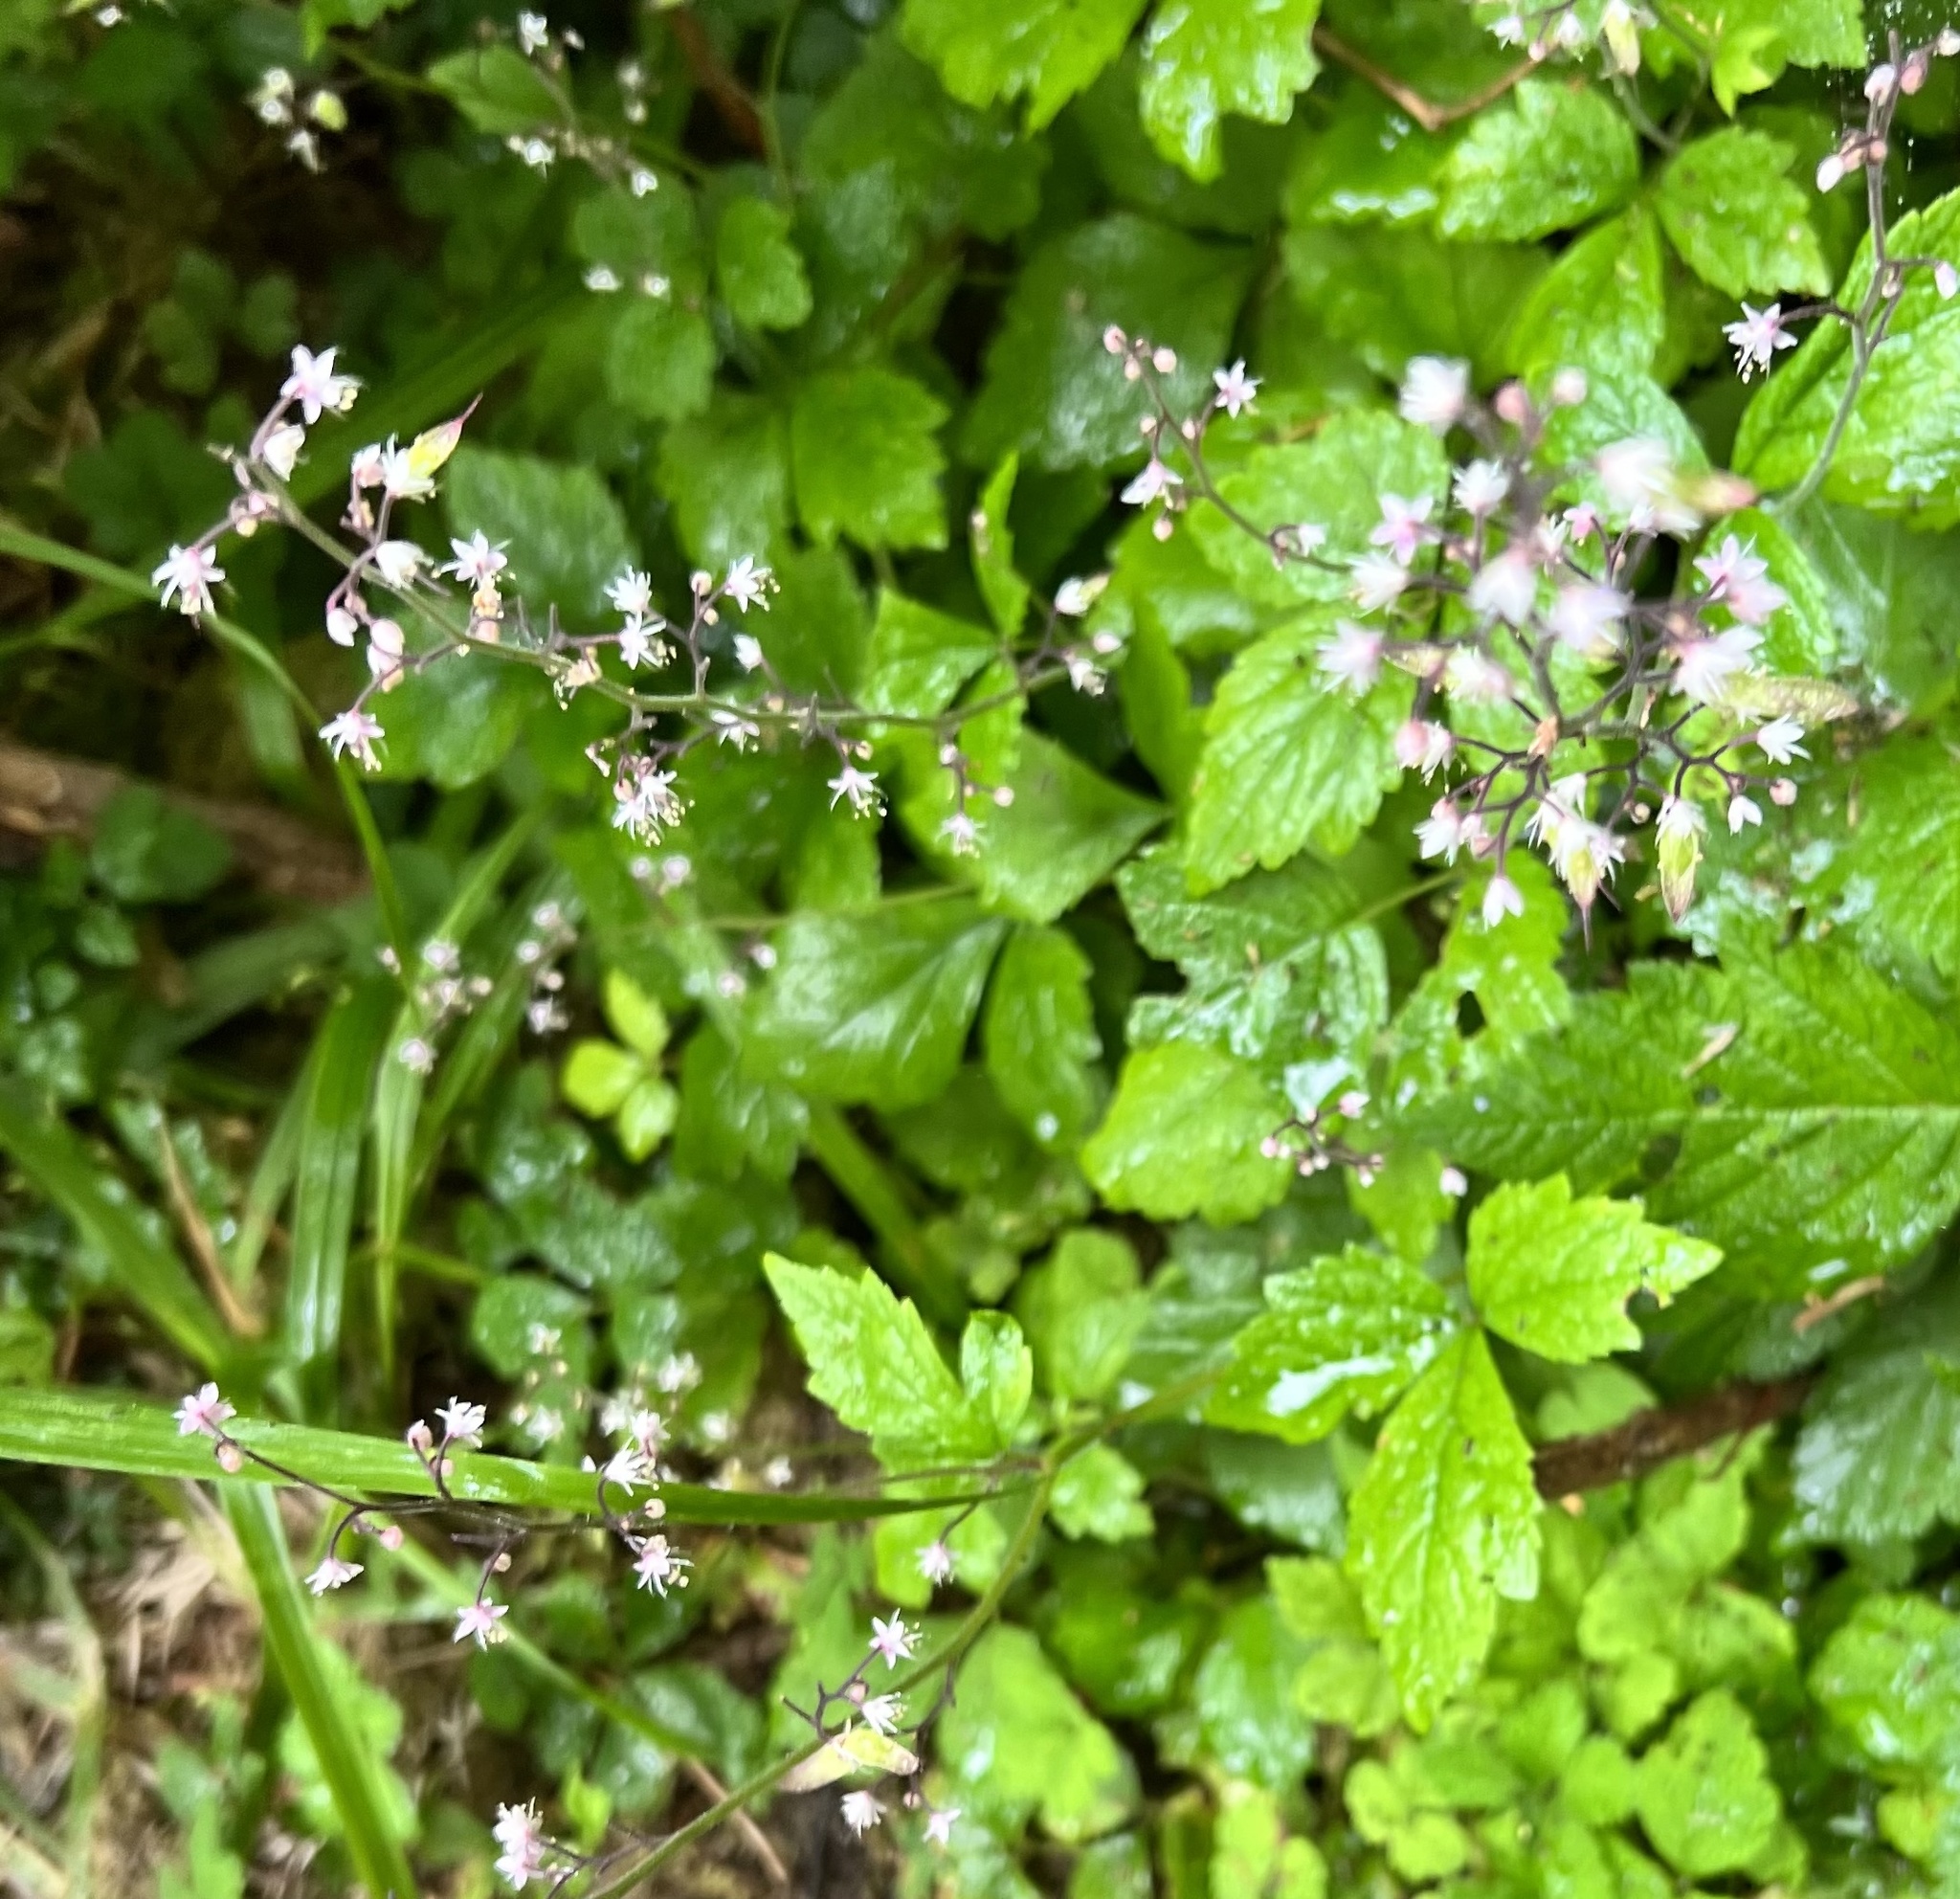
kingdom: Plantae
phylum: Tracheophyta
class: Magnoliopsida
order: Saxifragales
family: Saxifragaceae
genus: Tiarella
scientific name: Tiarella trifoliata
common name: Sugar-scoop
